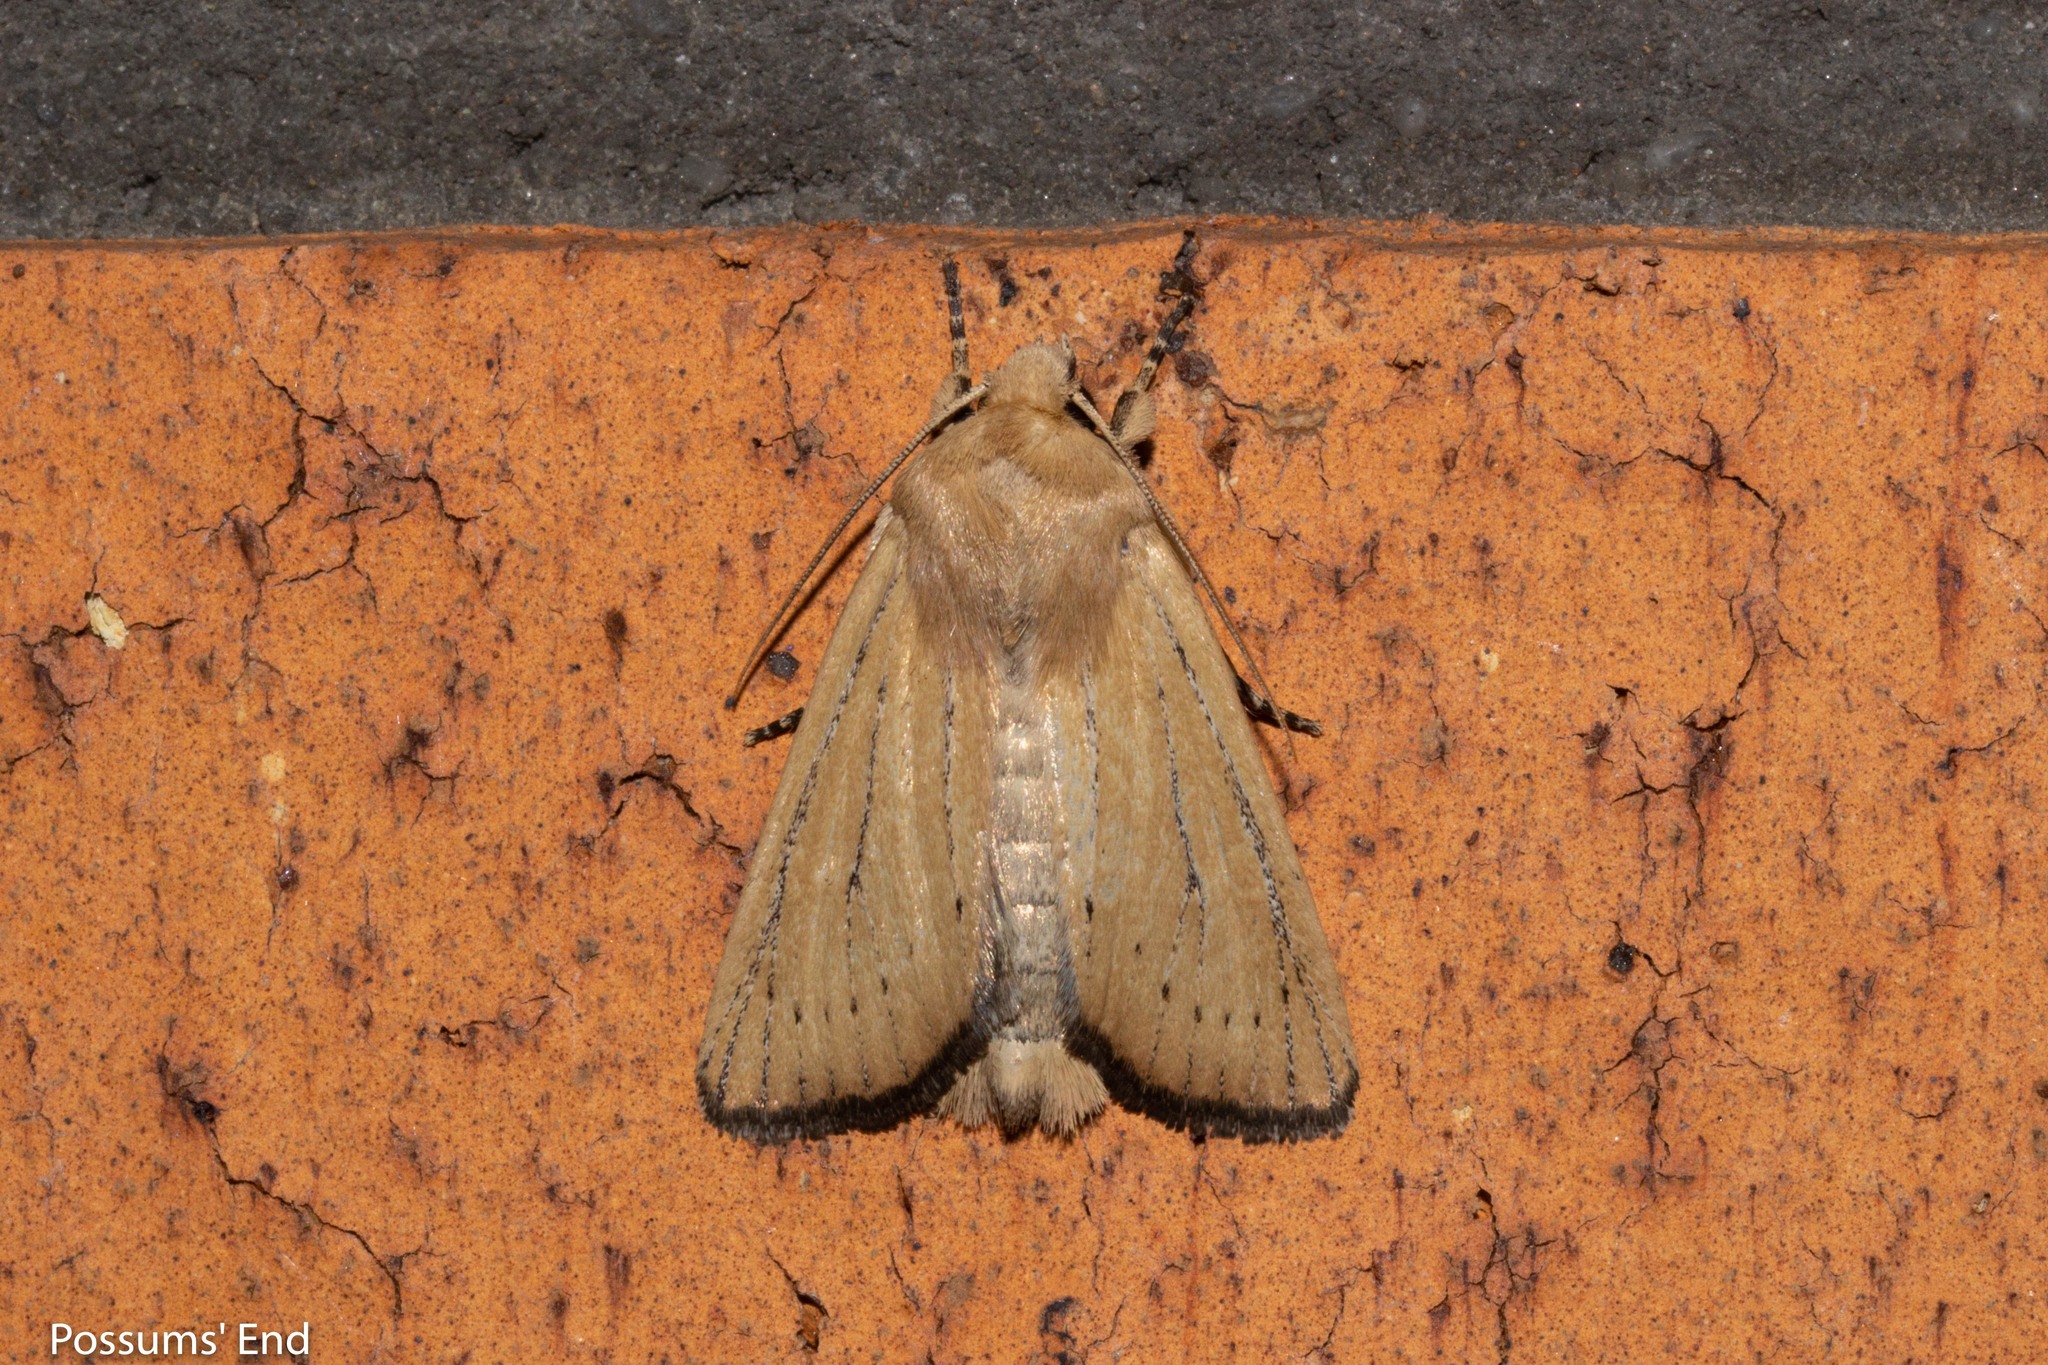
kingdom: Animalia
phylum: Arthropoda
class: Insecta
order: Lepidoptera
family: Noctuidae
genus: Ichneutica
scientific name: Ichneutica blenheimensis
